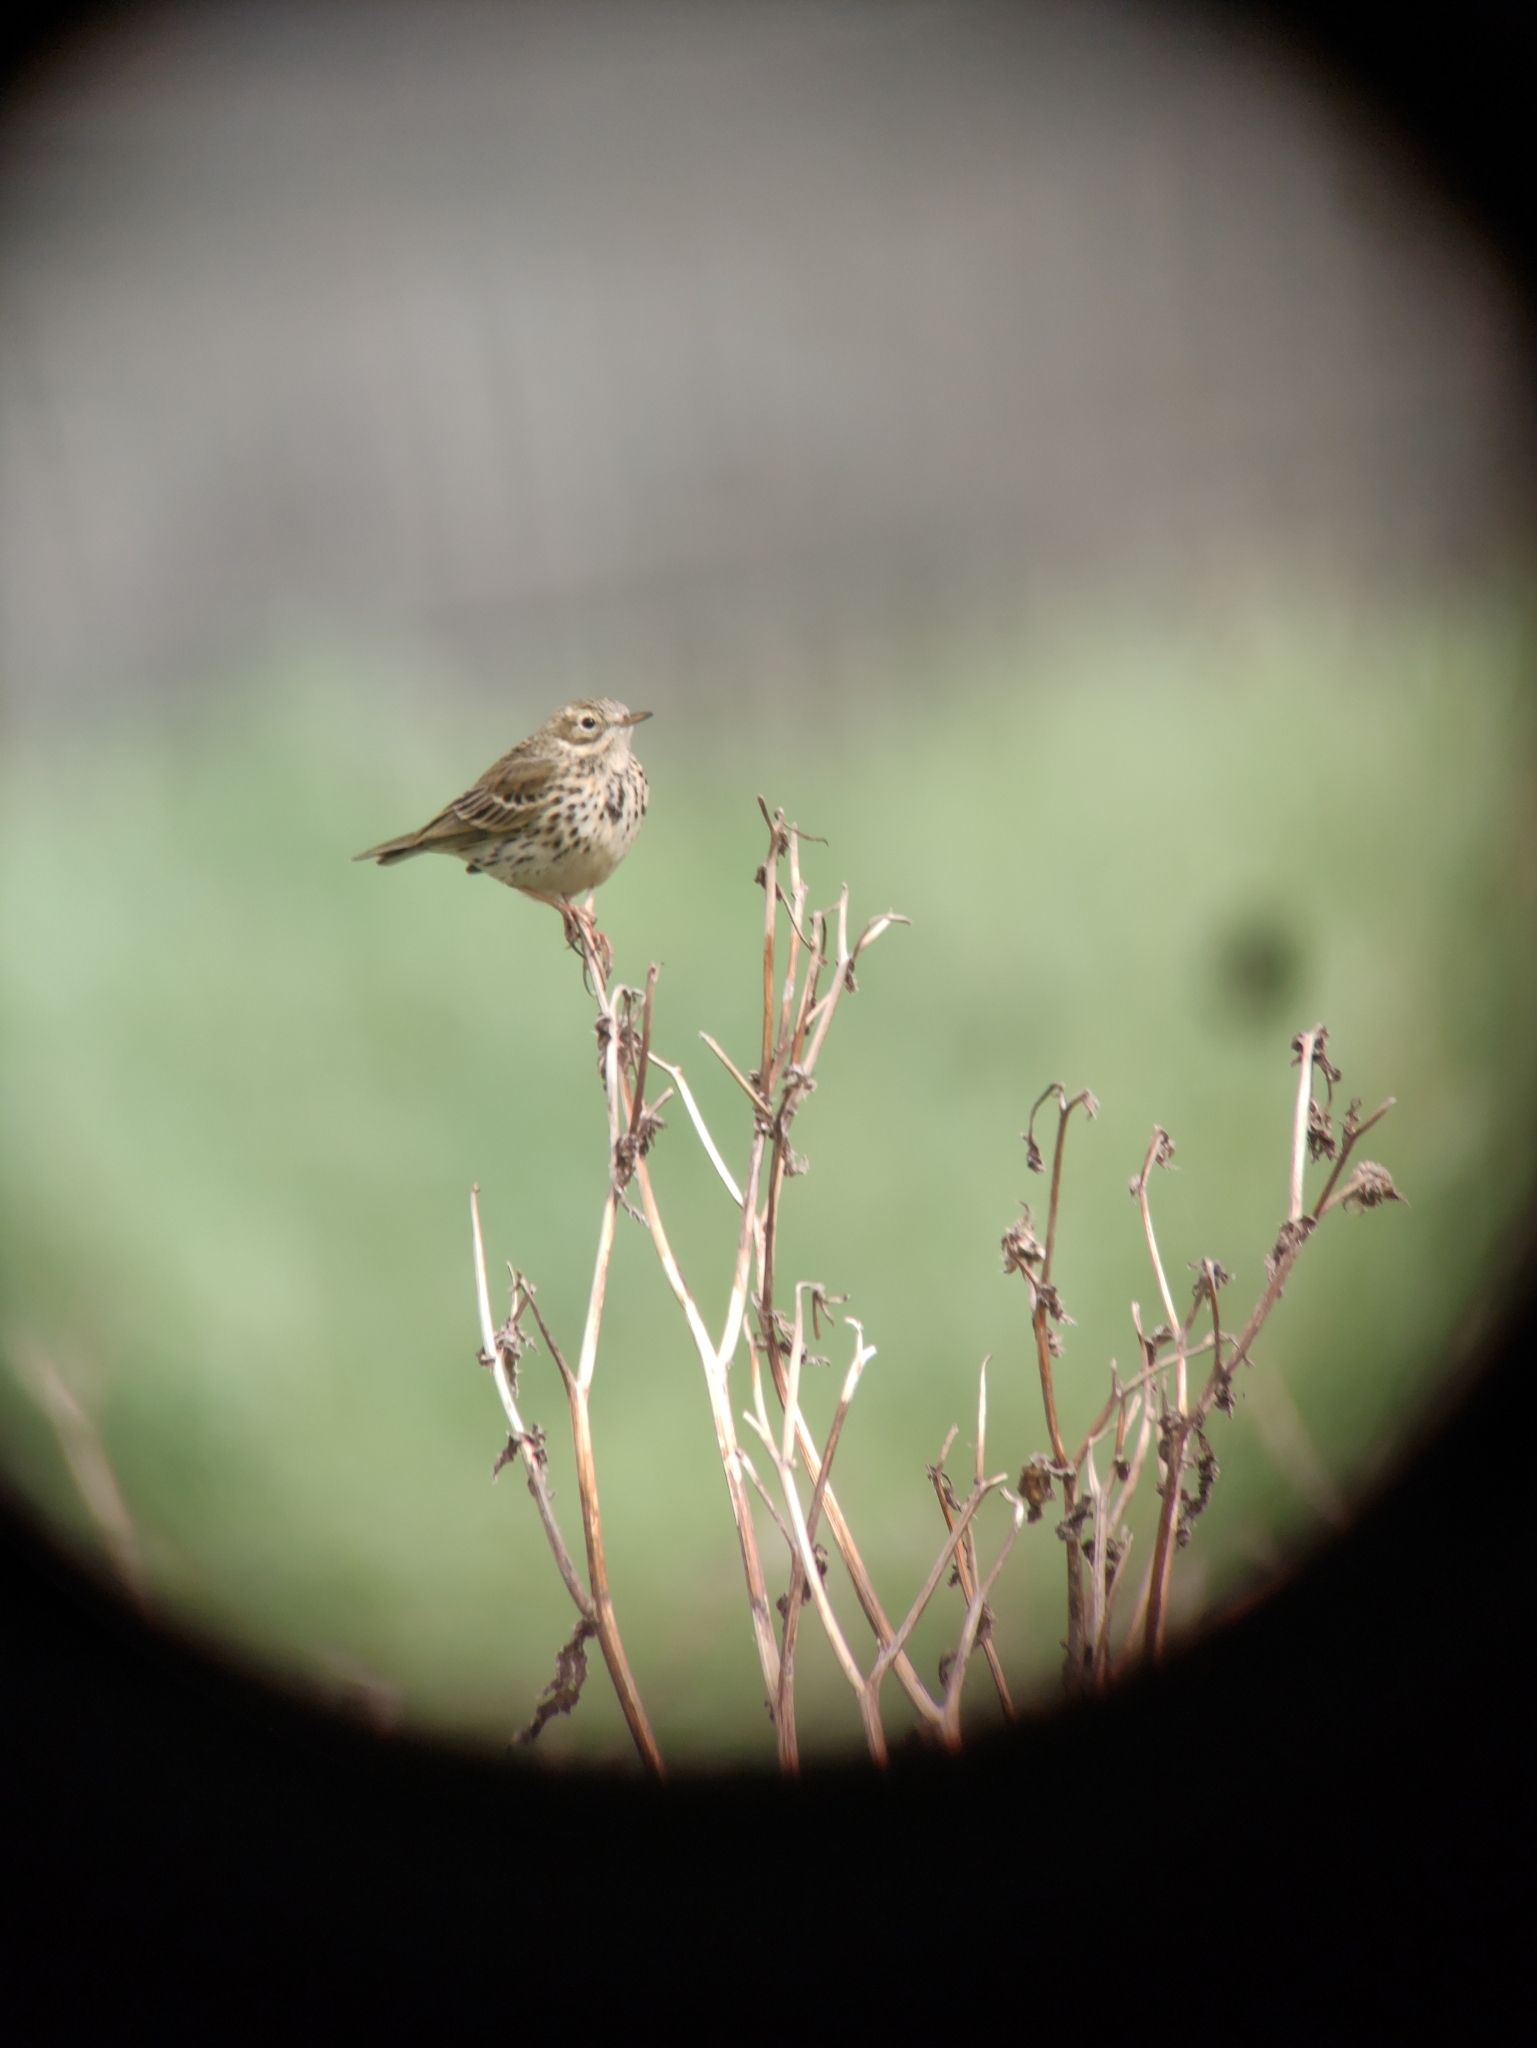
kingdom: Animalia
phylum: Chordata
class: Aves
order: Passeriformes
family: Motacillidae
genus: Anthus
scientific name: Anthus pratensis
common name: Meadow pipit
